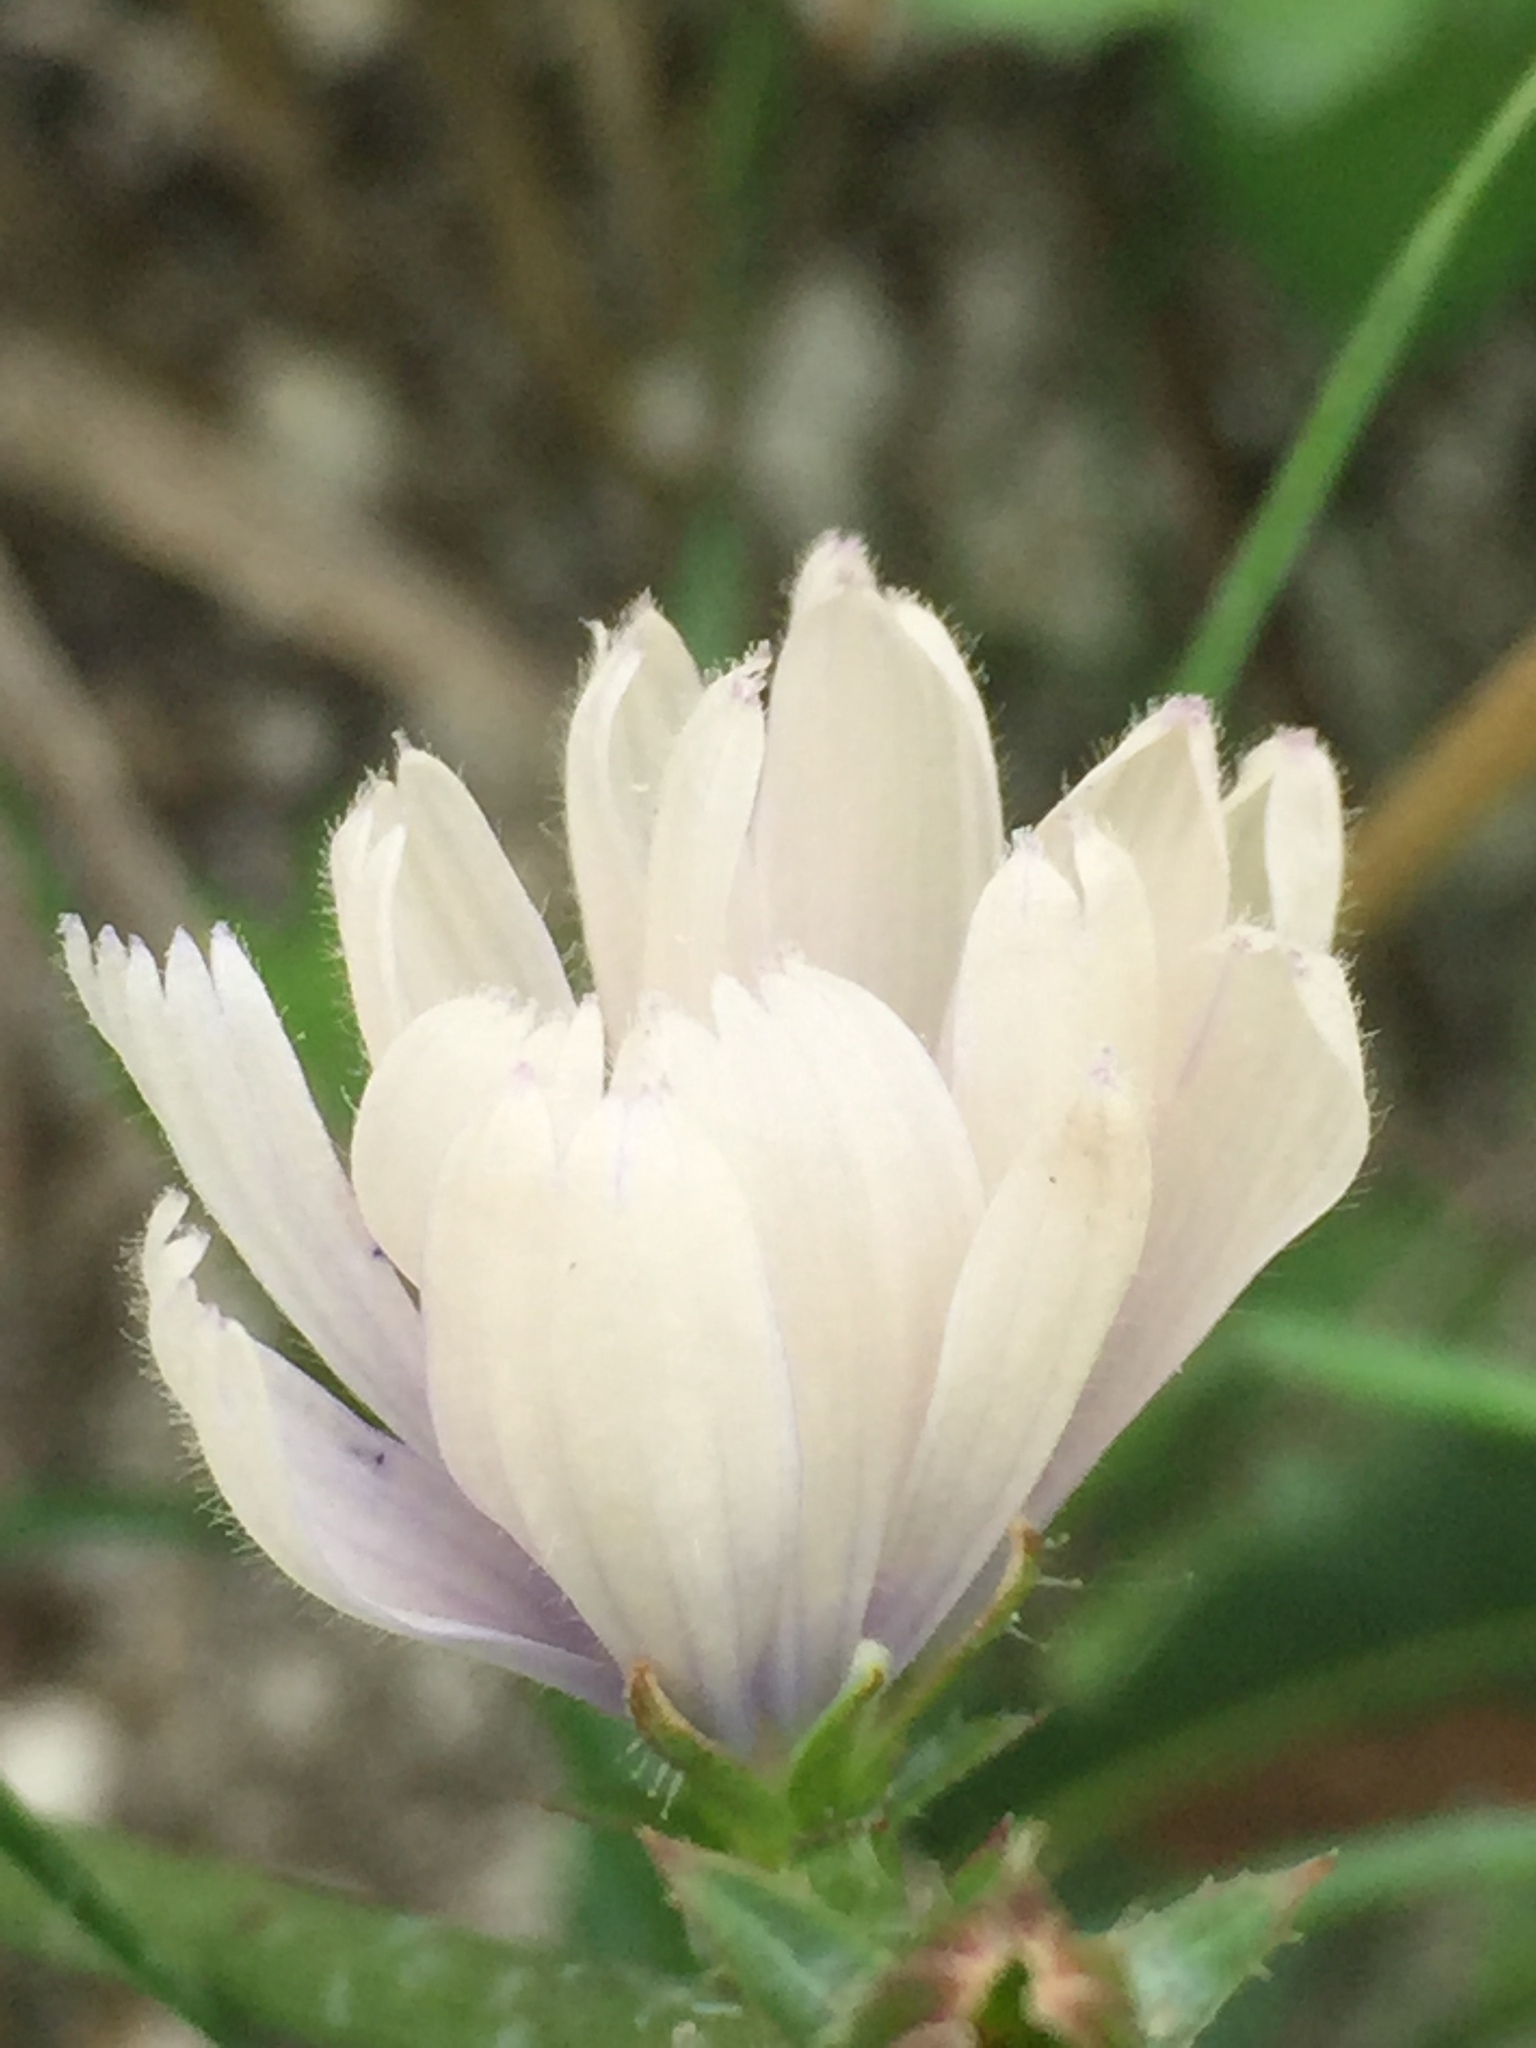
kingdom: Plantae
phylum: Tracheophyta
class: Magnoliopsida
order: Asterales
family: Asteraceae
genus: Cichorium
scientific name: Cichorium intybus
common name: Chicory
